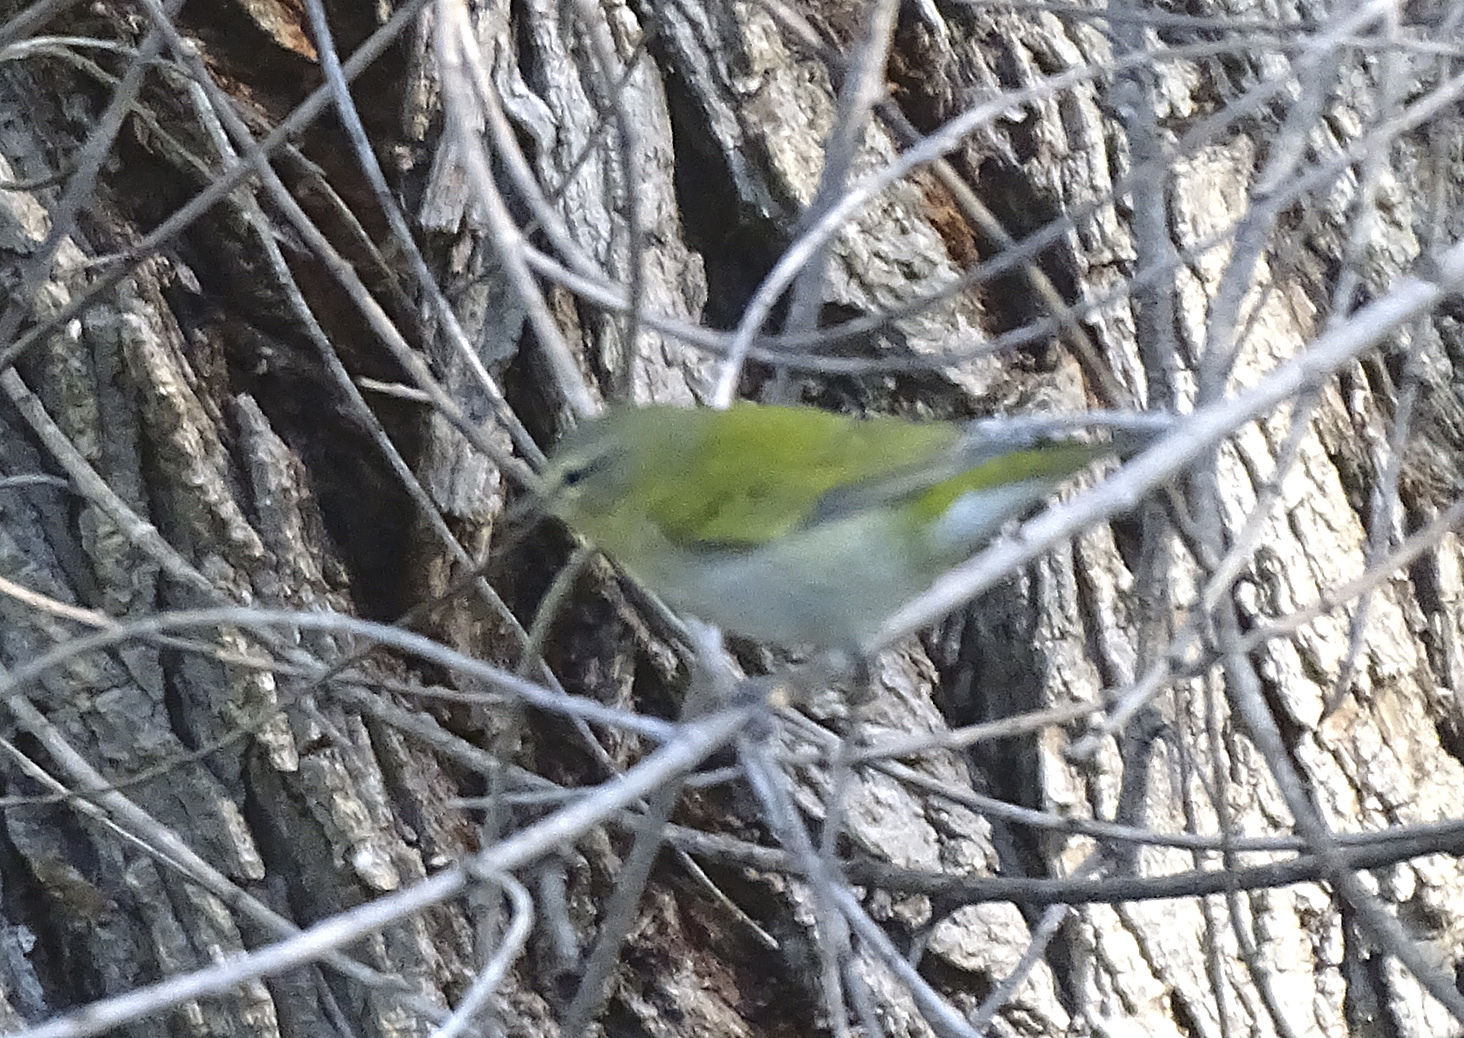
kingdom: Animalia
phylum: Chordata
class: Aves
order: Passeriformes
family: Parulidae
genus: Leiothlypis
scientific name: Leiothlypis peregrina
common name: Tennessee warbler
